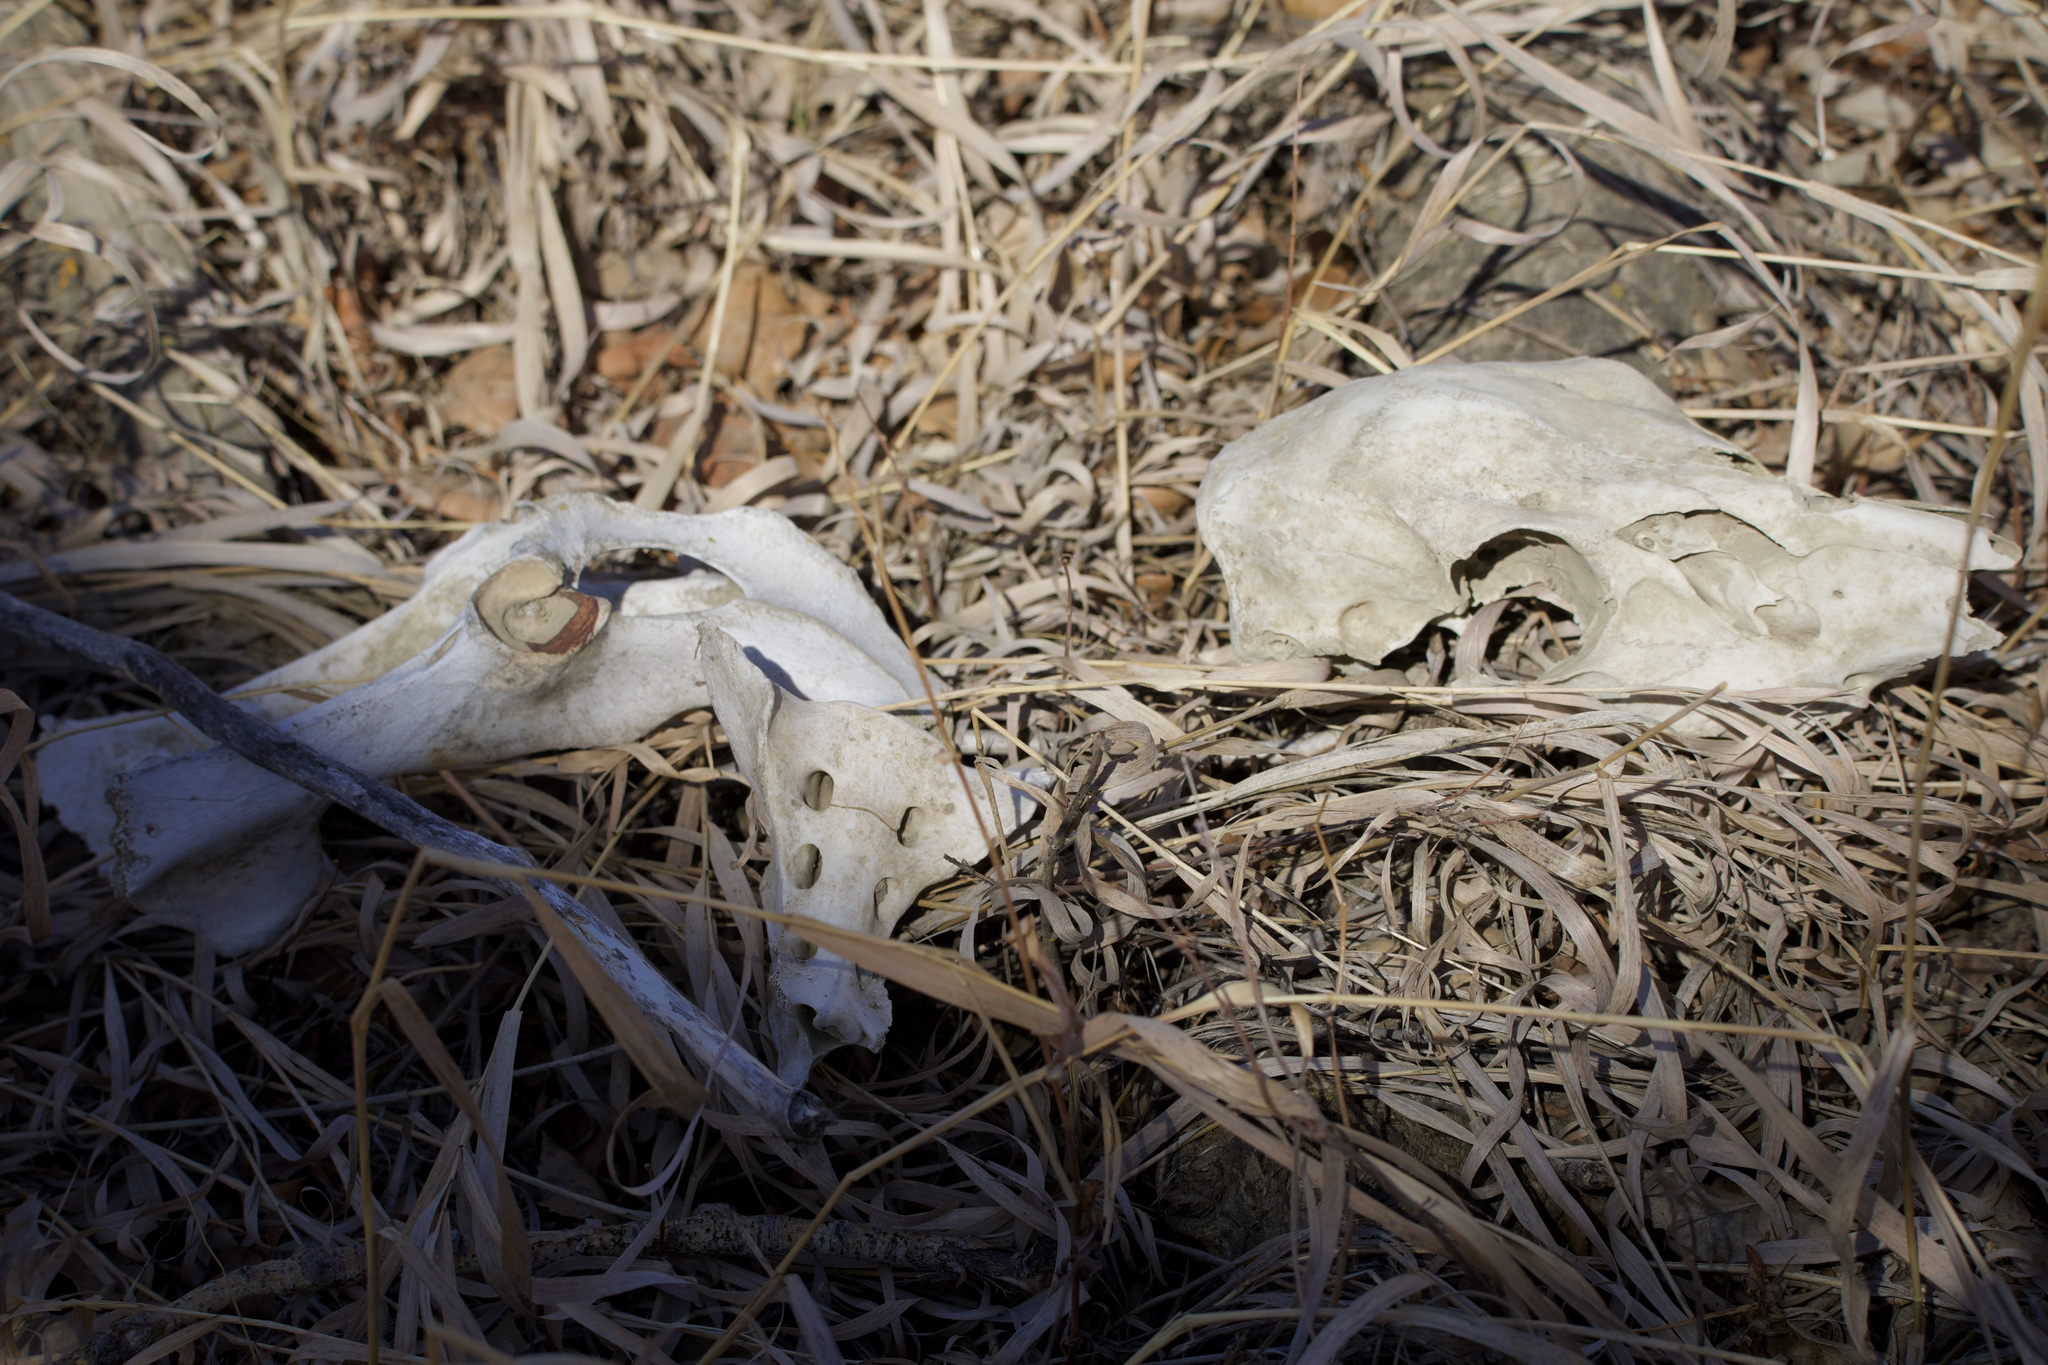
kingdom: Animalia
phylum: Chordata
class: Mammalia
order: Artiodactyla
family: Cervidae
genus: Odocoileus
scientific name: Odocoileus virginianus
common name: White-tailed deer
